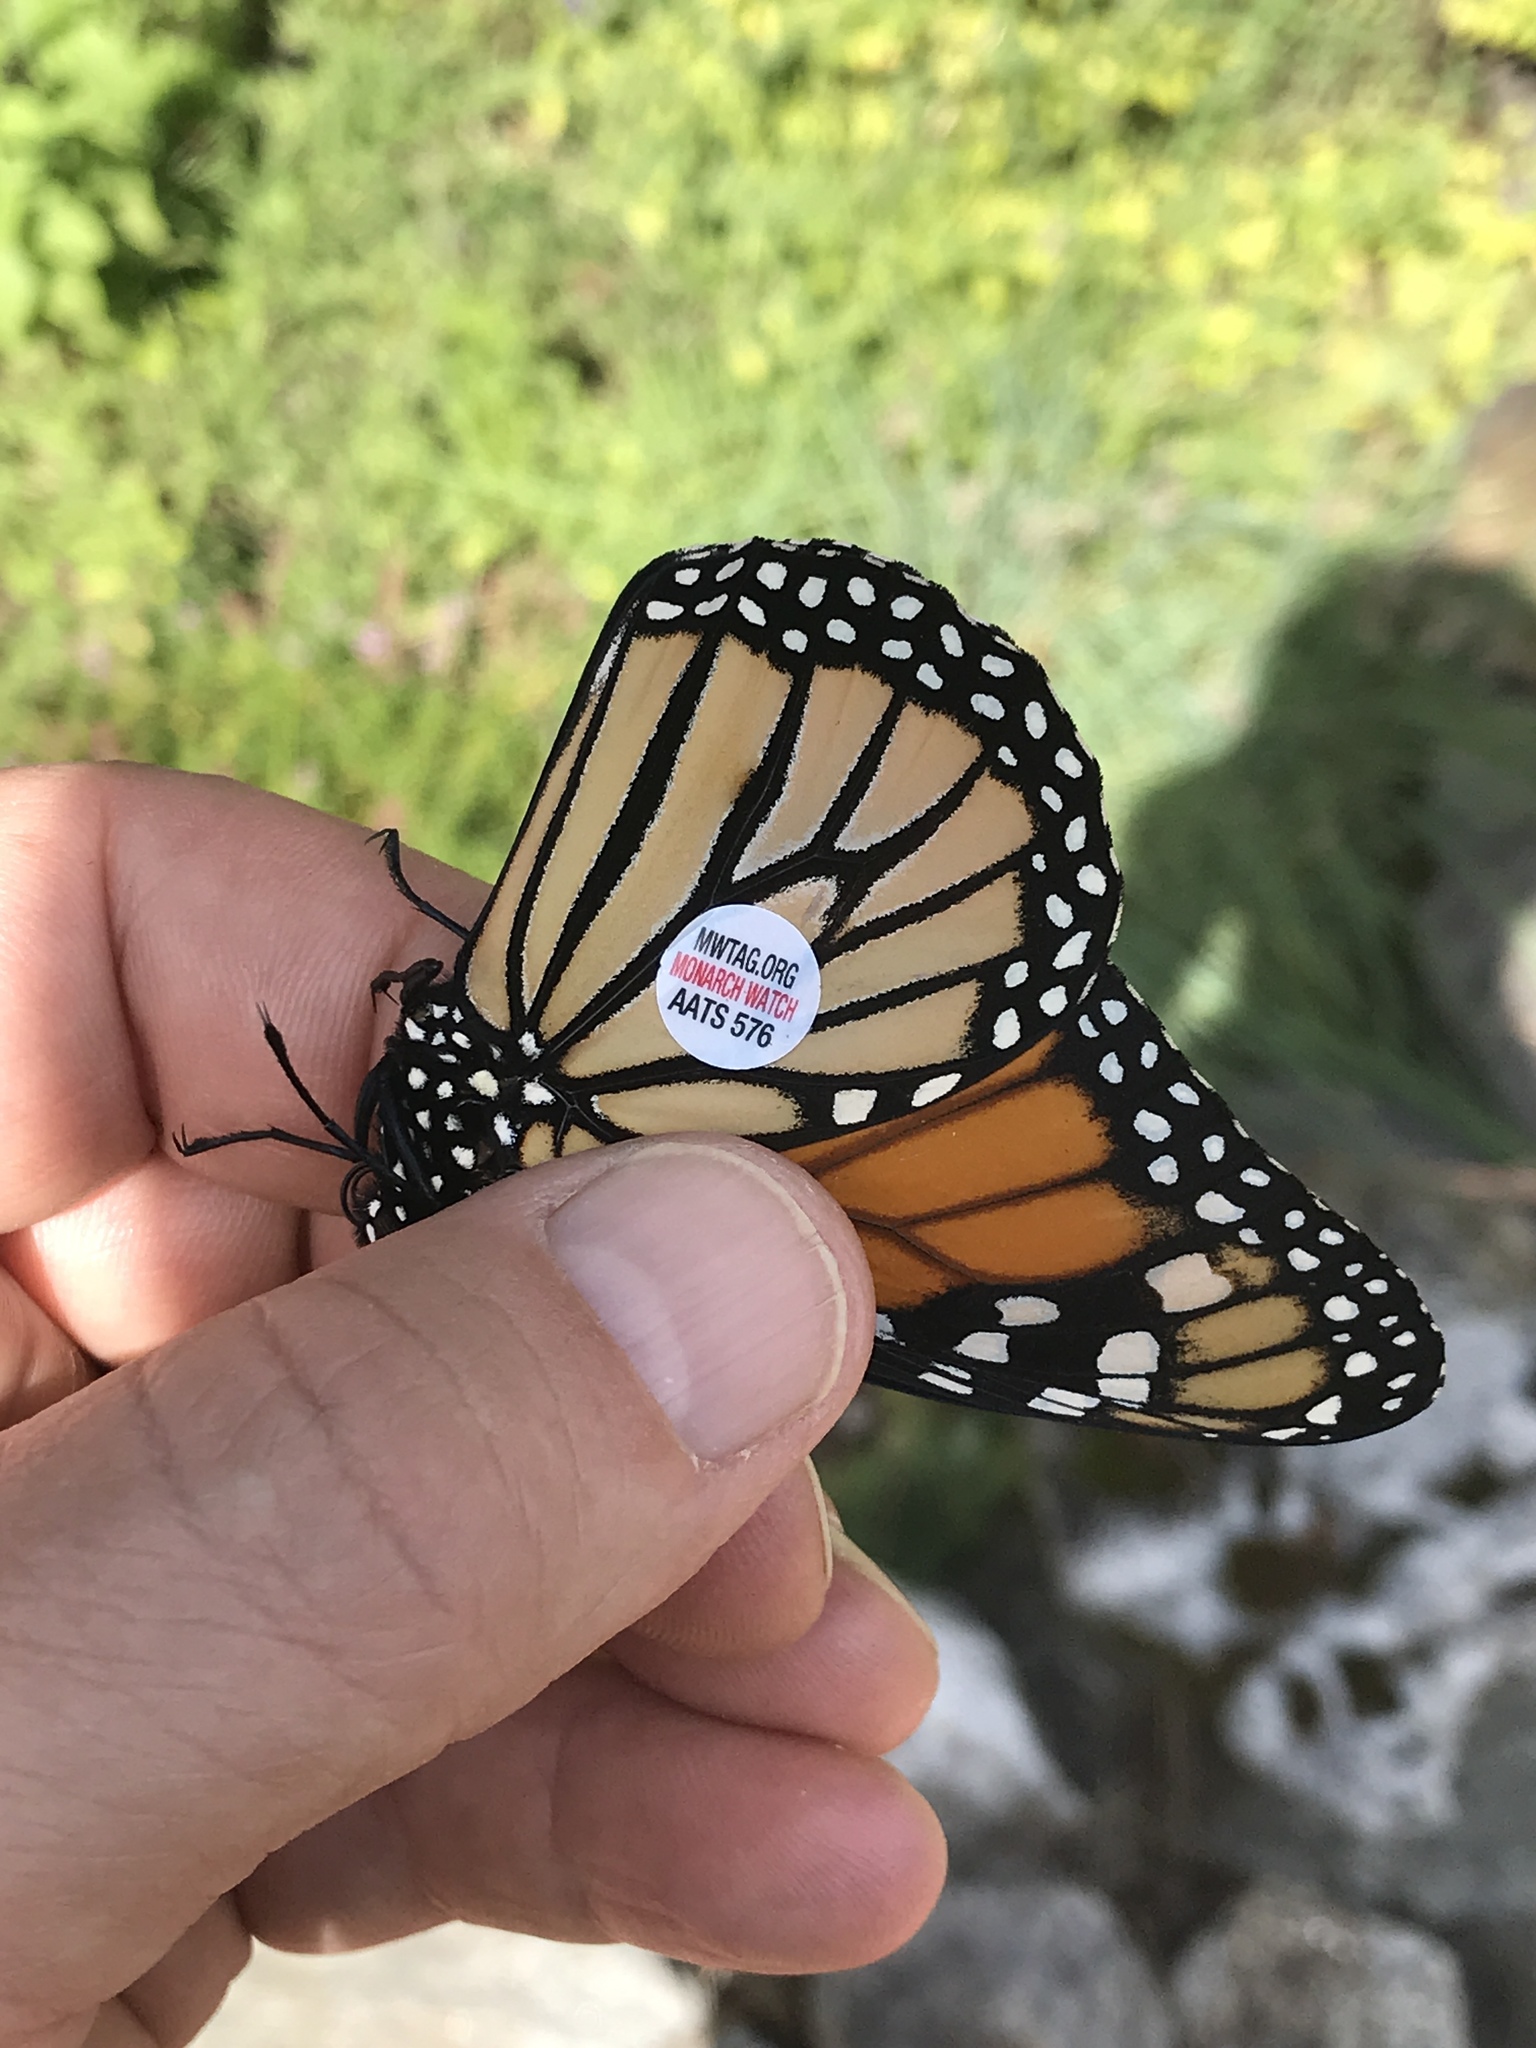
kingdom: Animalia
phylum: Arthropoda
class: Insecta
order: Lepidoptera
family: Nymphalidae
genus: Danaus
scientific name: Danaus plexippus
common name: Monarch
